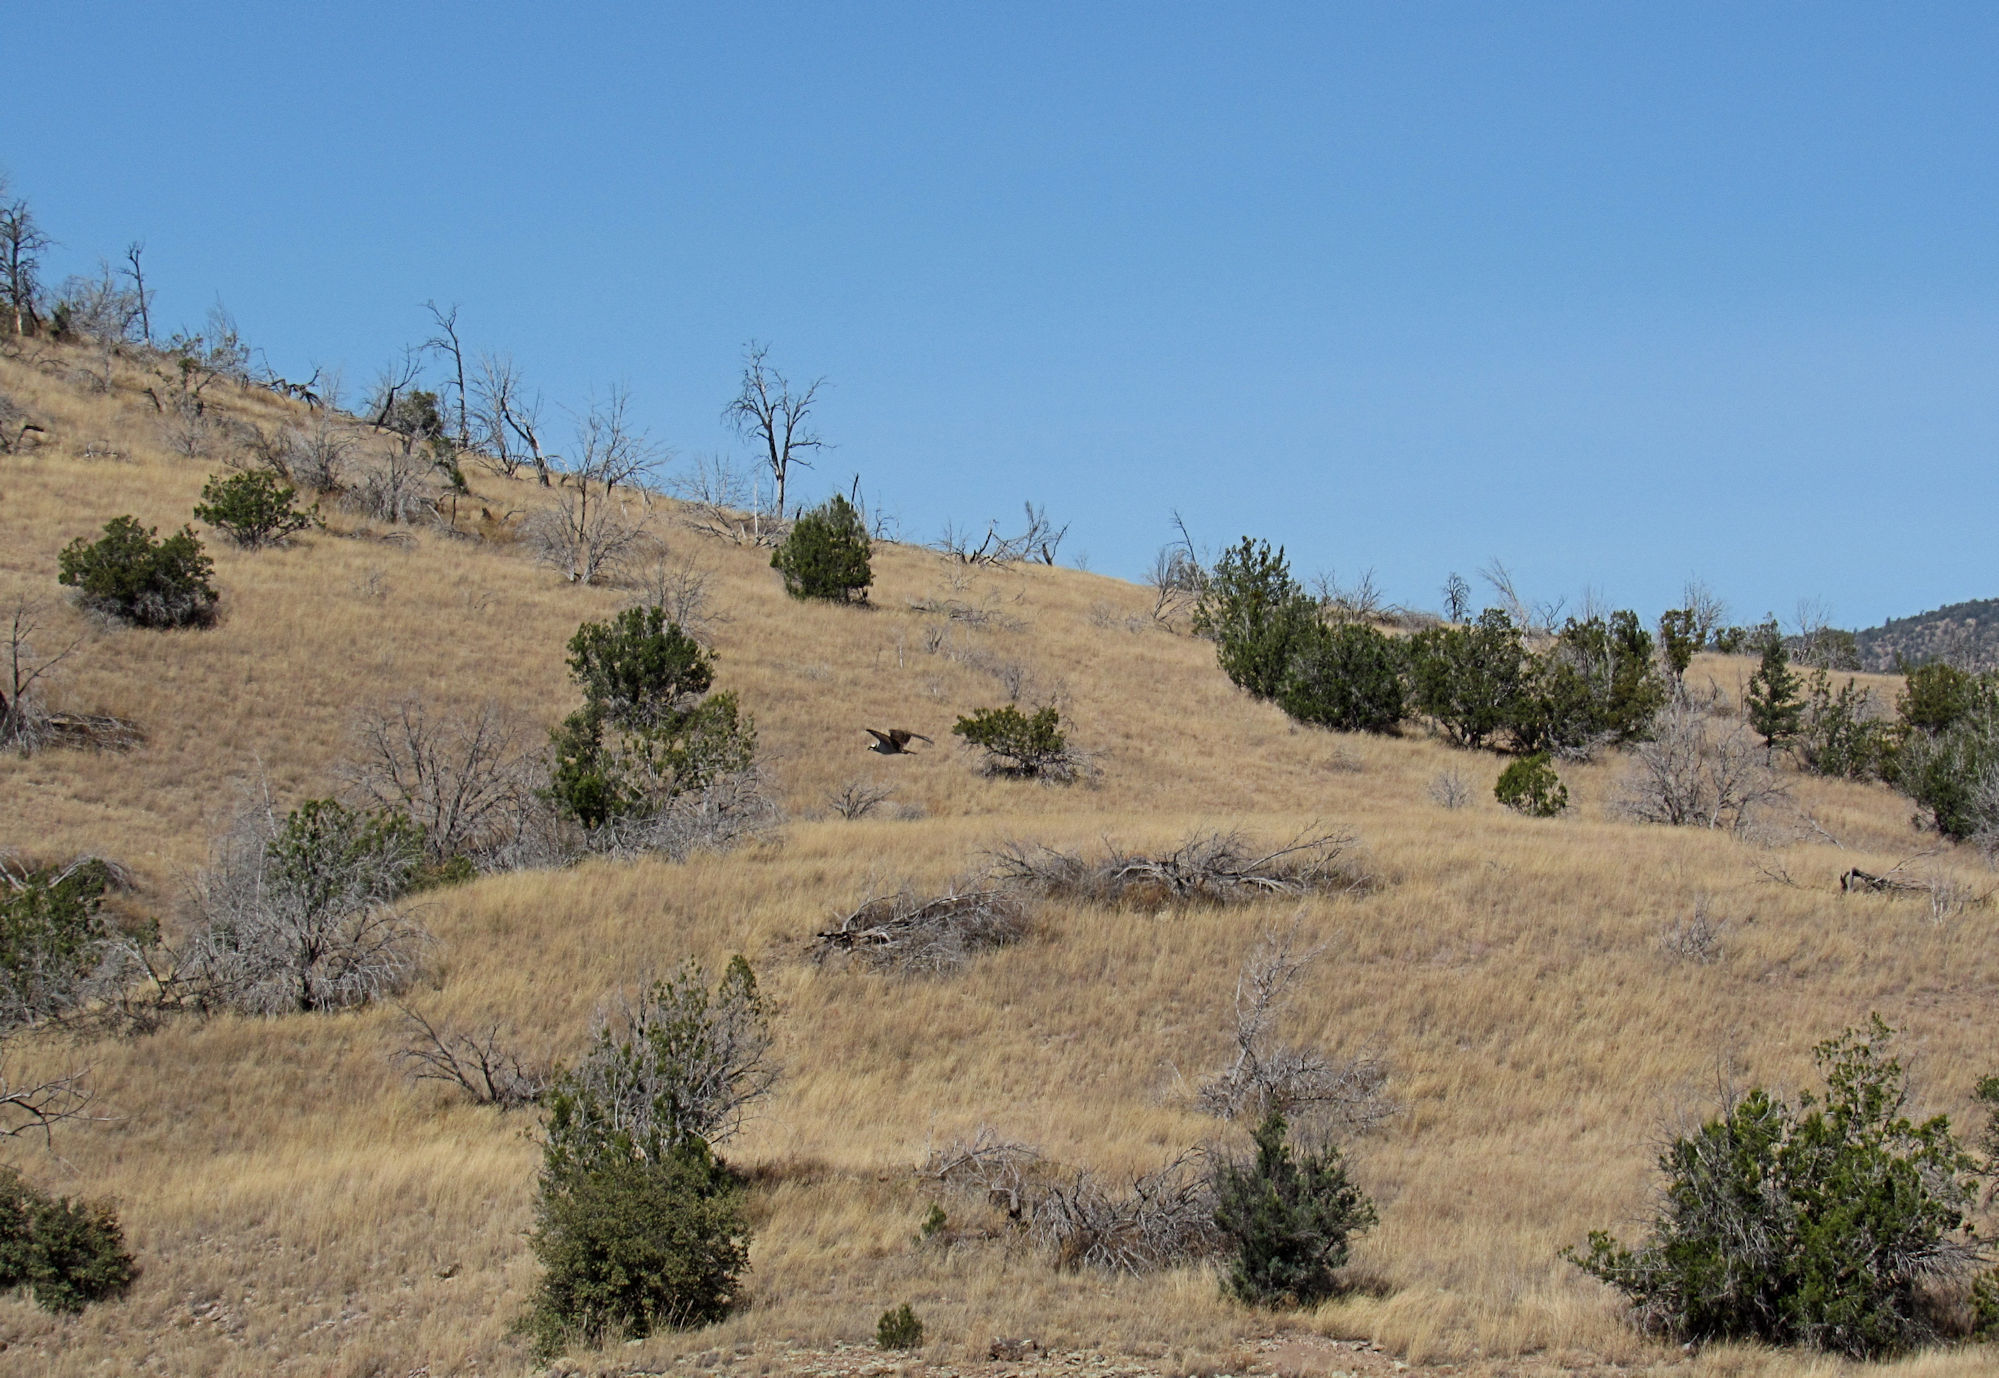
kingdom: Animalia
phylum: Chordata
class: Aves
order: Accipitriformes
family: Pandionidae
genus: Pandion
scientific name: Pandion haliaetus
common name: Osprey
